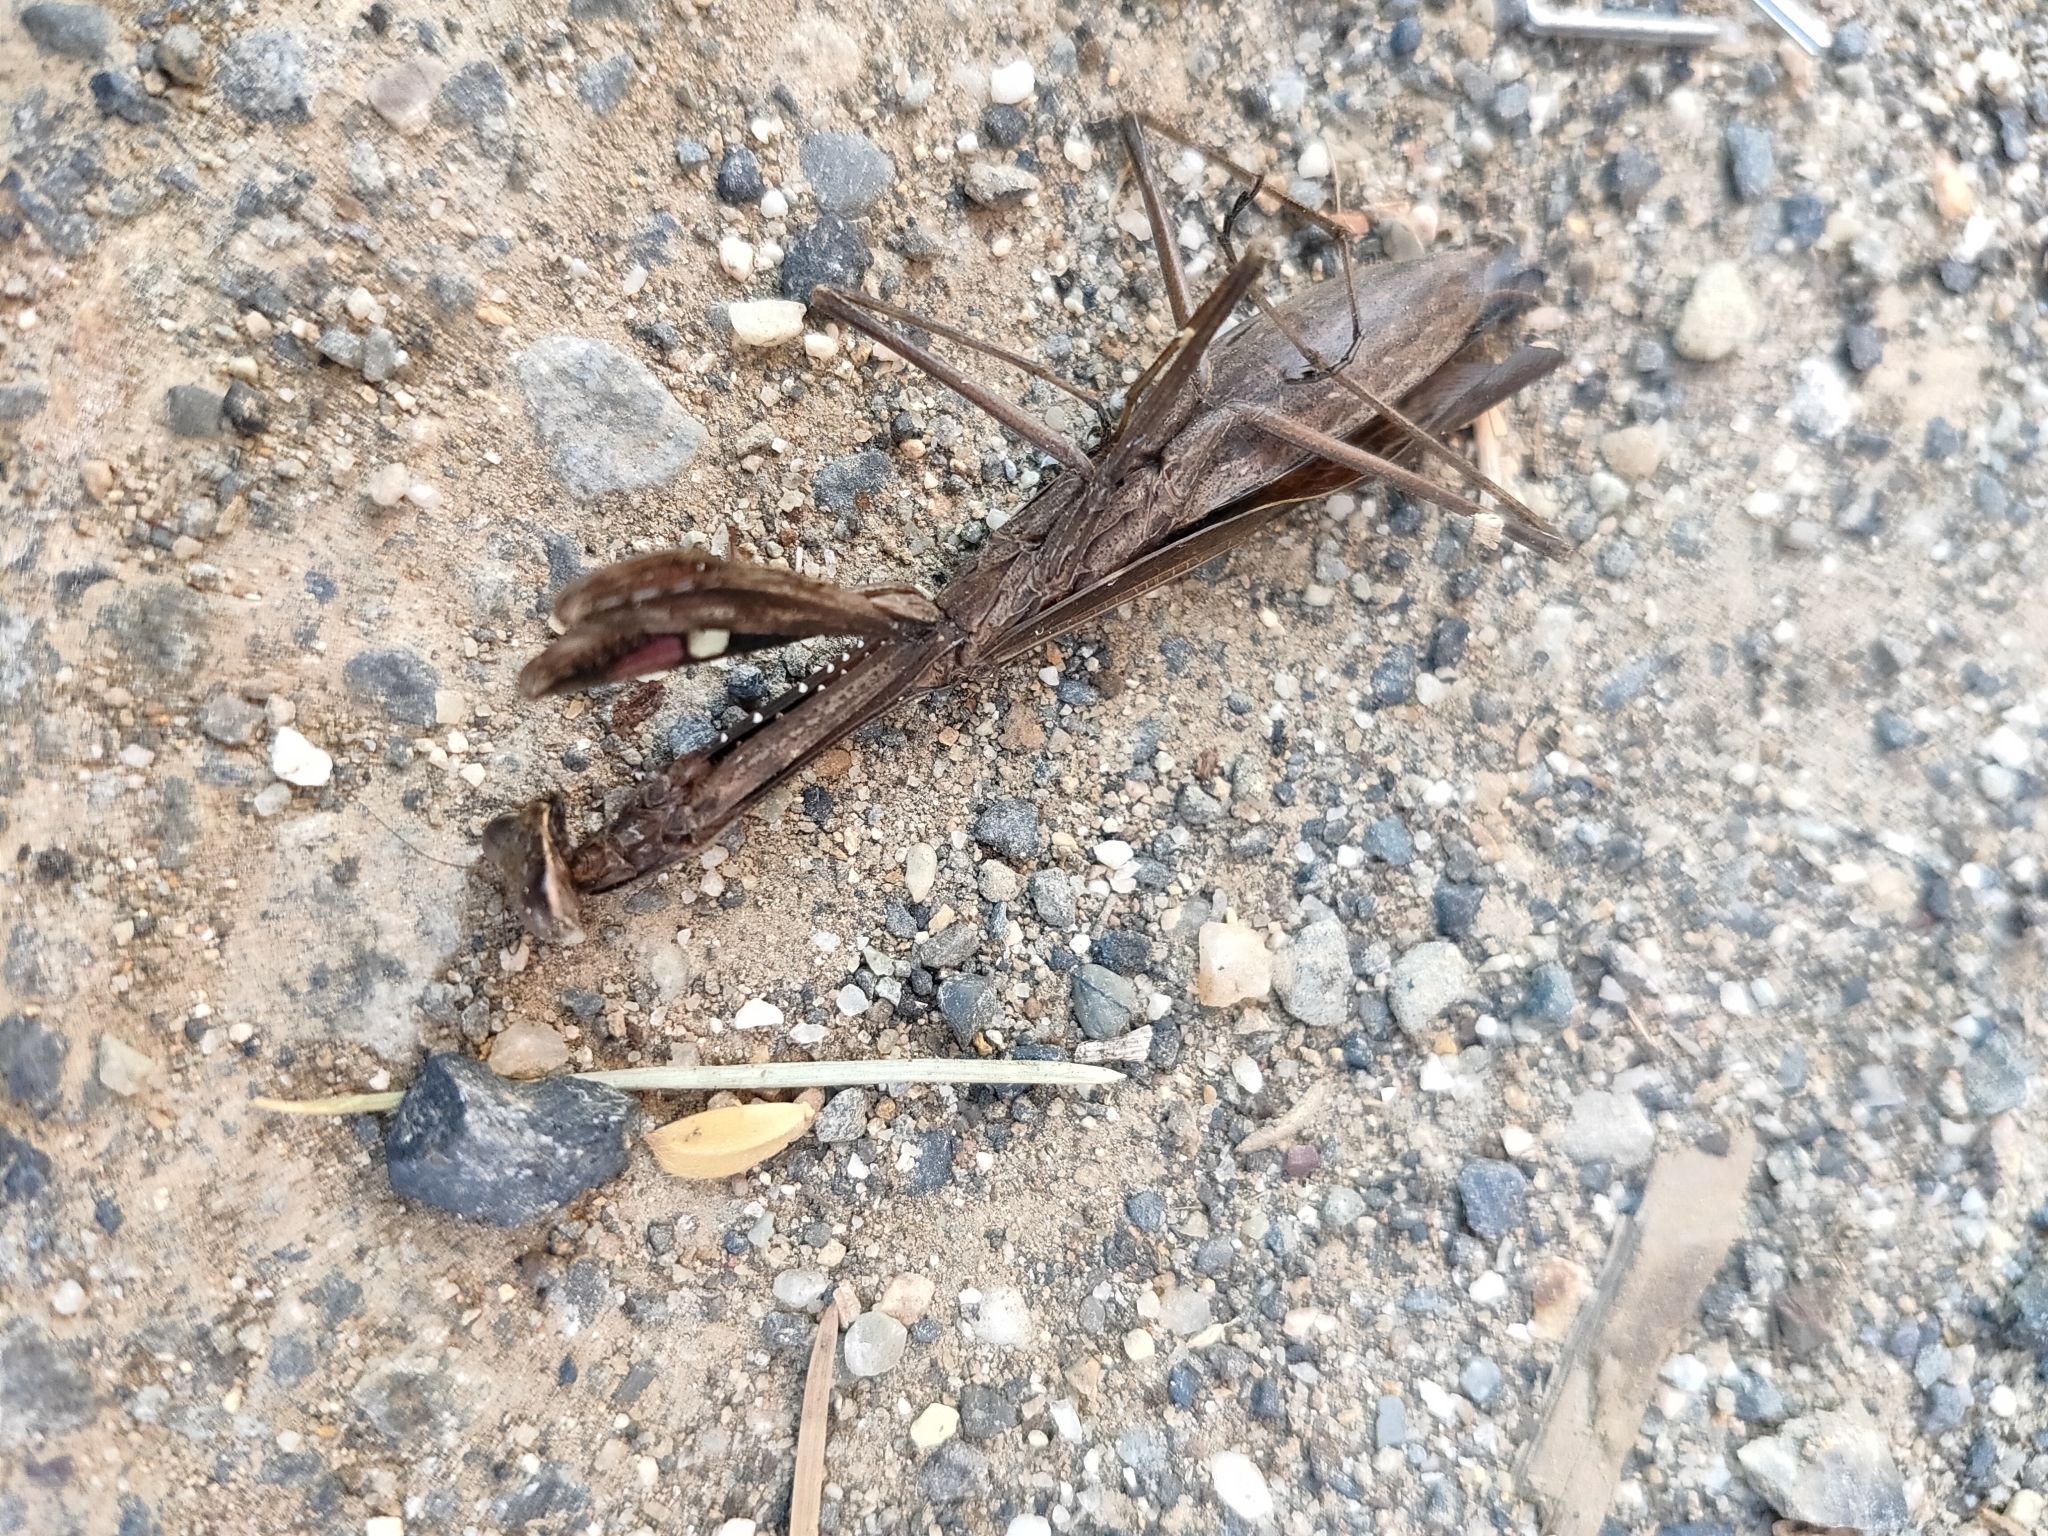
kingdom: Animalia
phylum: Arthropoda
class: Insecta
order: Mantodea
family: Mantidae
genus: Statilia
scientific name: Statilia maculata
